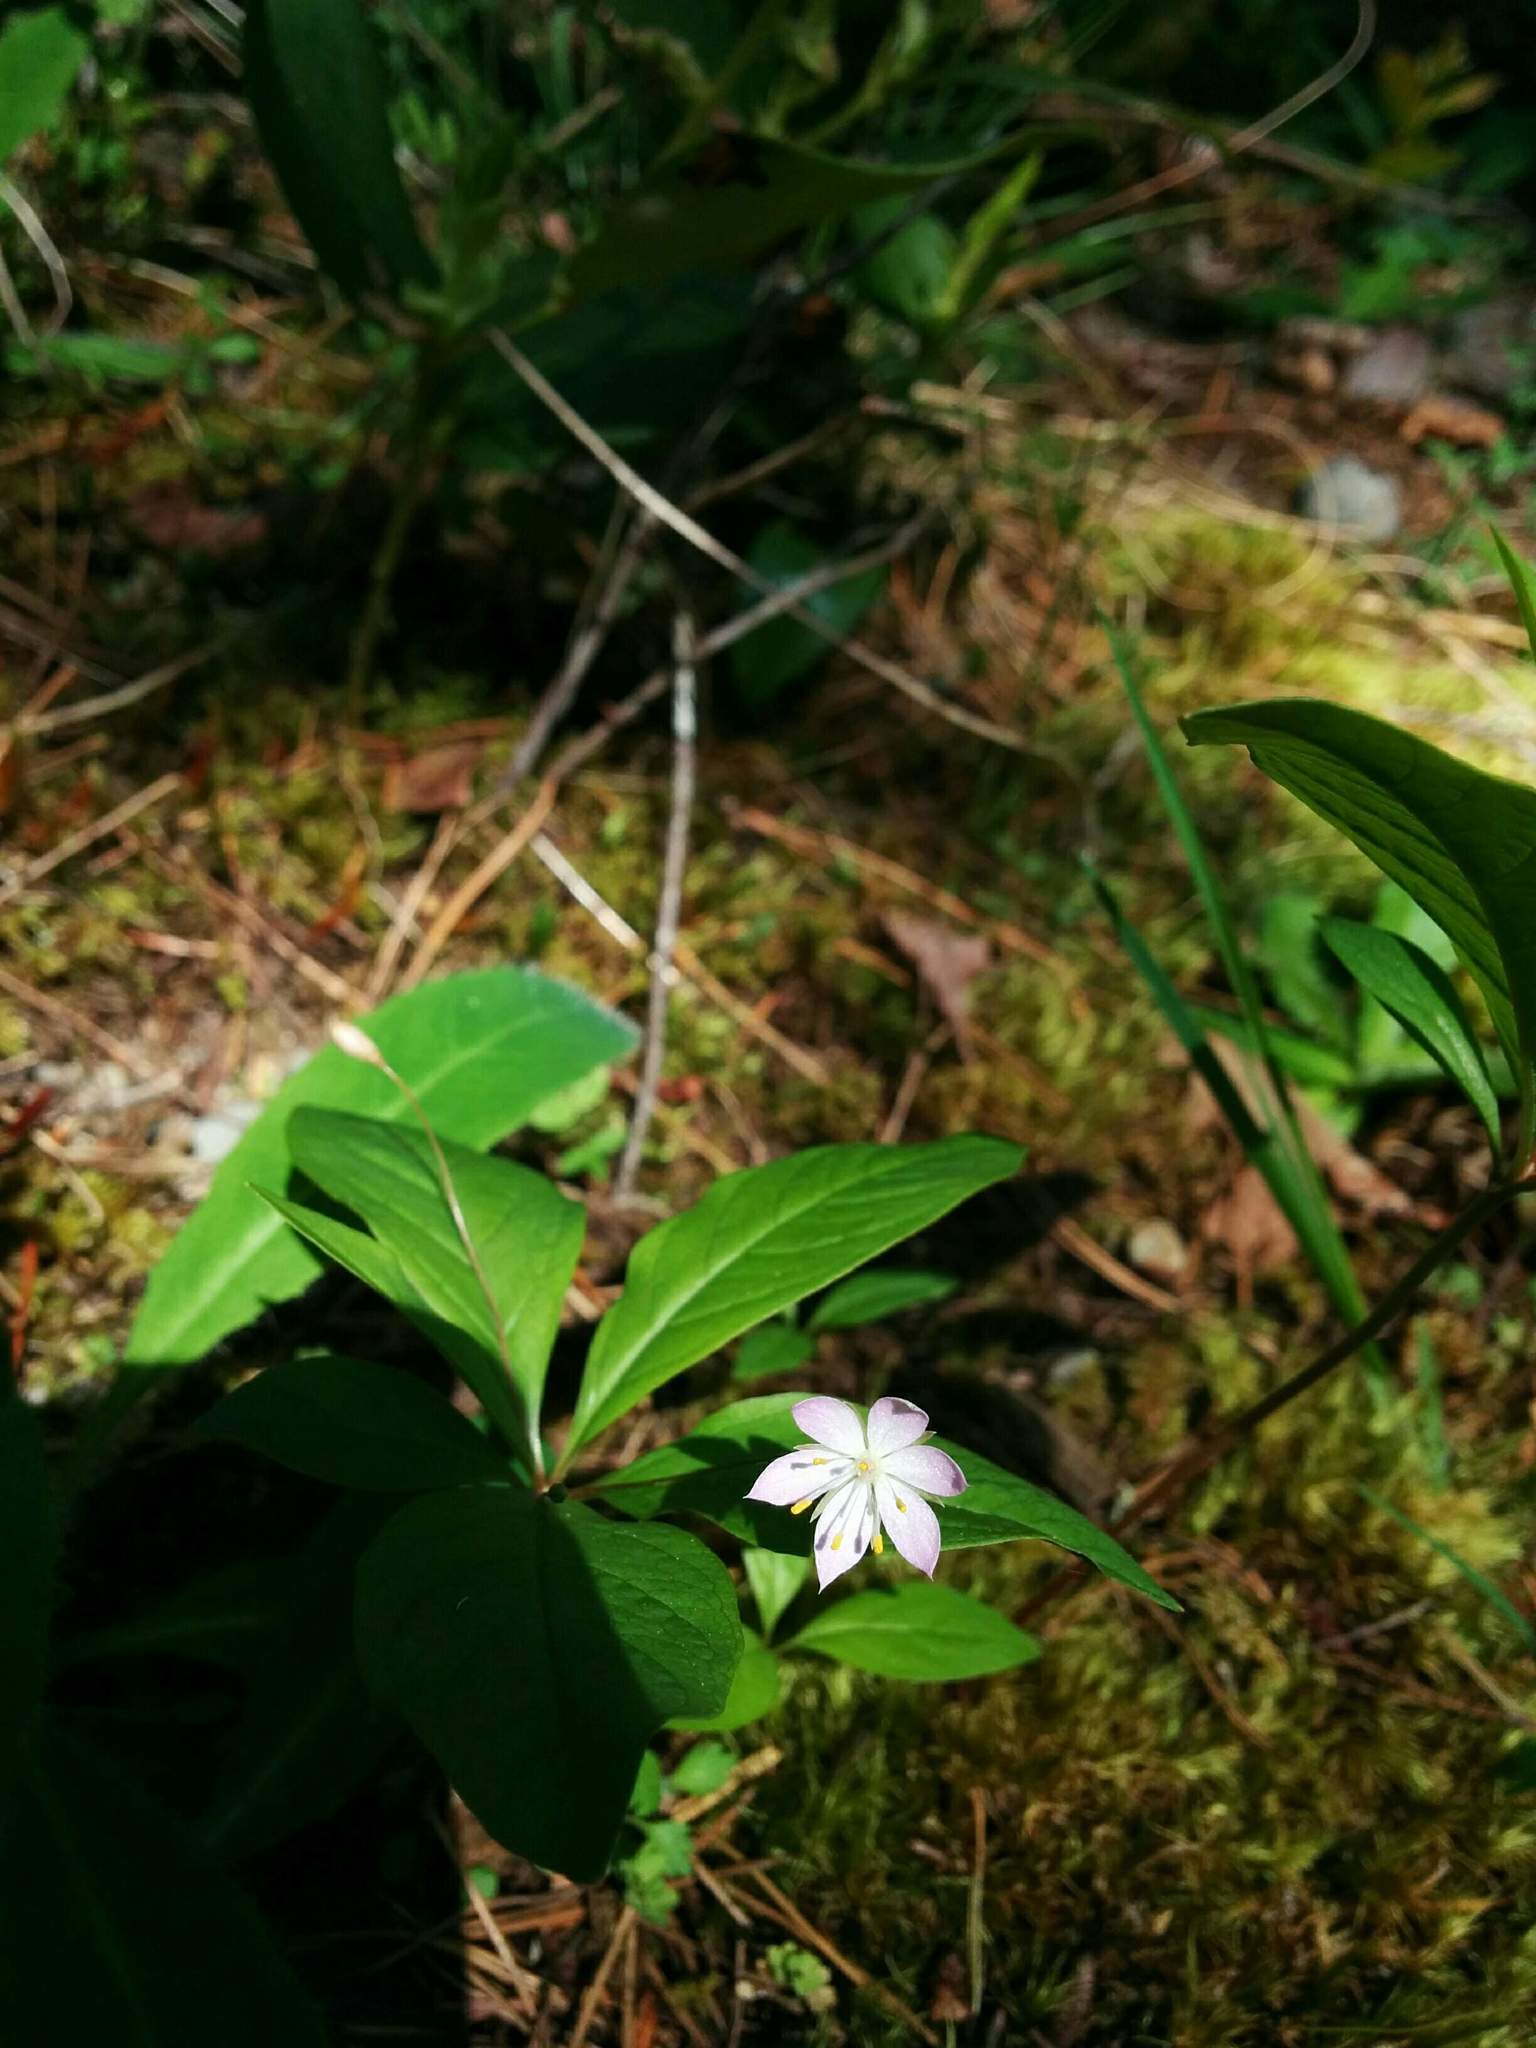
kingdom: Plantae
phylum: Tracheophyta
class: Magnoliopsida
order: Ericales
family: Primulaceae
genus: Lysimachia
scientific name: Lysimachia latifolia
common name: Pacific starflower
